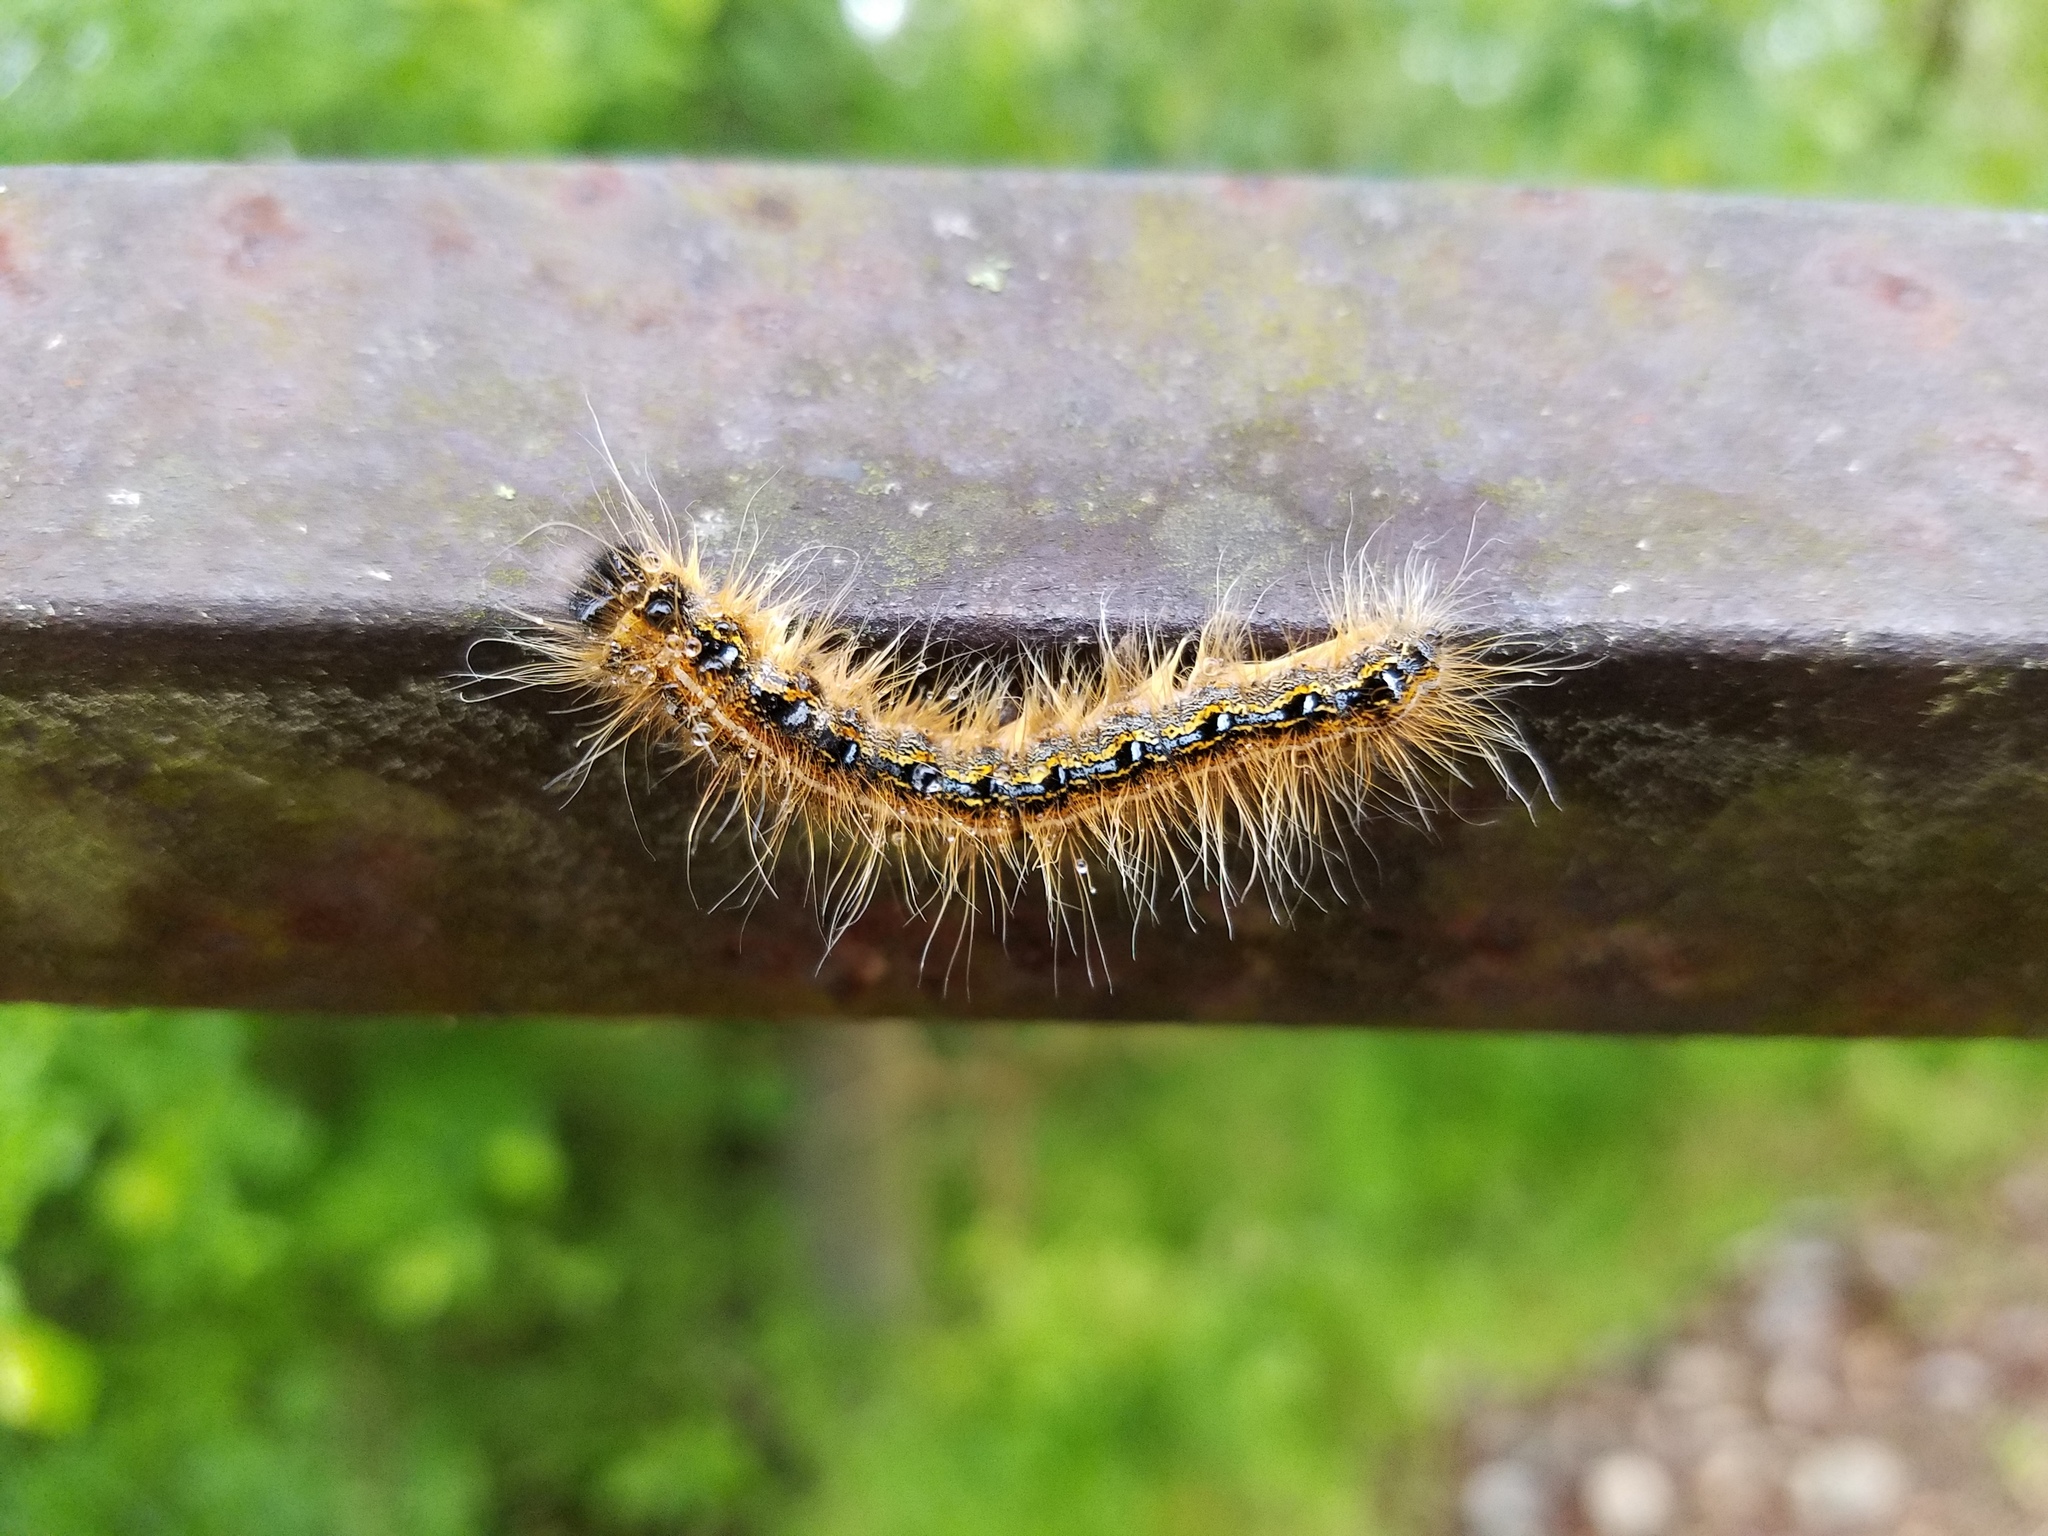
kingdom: Animalia
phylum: Arthropoda
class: Insecta
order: Lepidoptera
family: Lasiocampidae
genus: Malacosoma
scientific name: Malacosoma americana
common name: Eastern tent caterpillar moth
